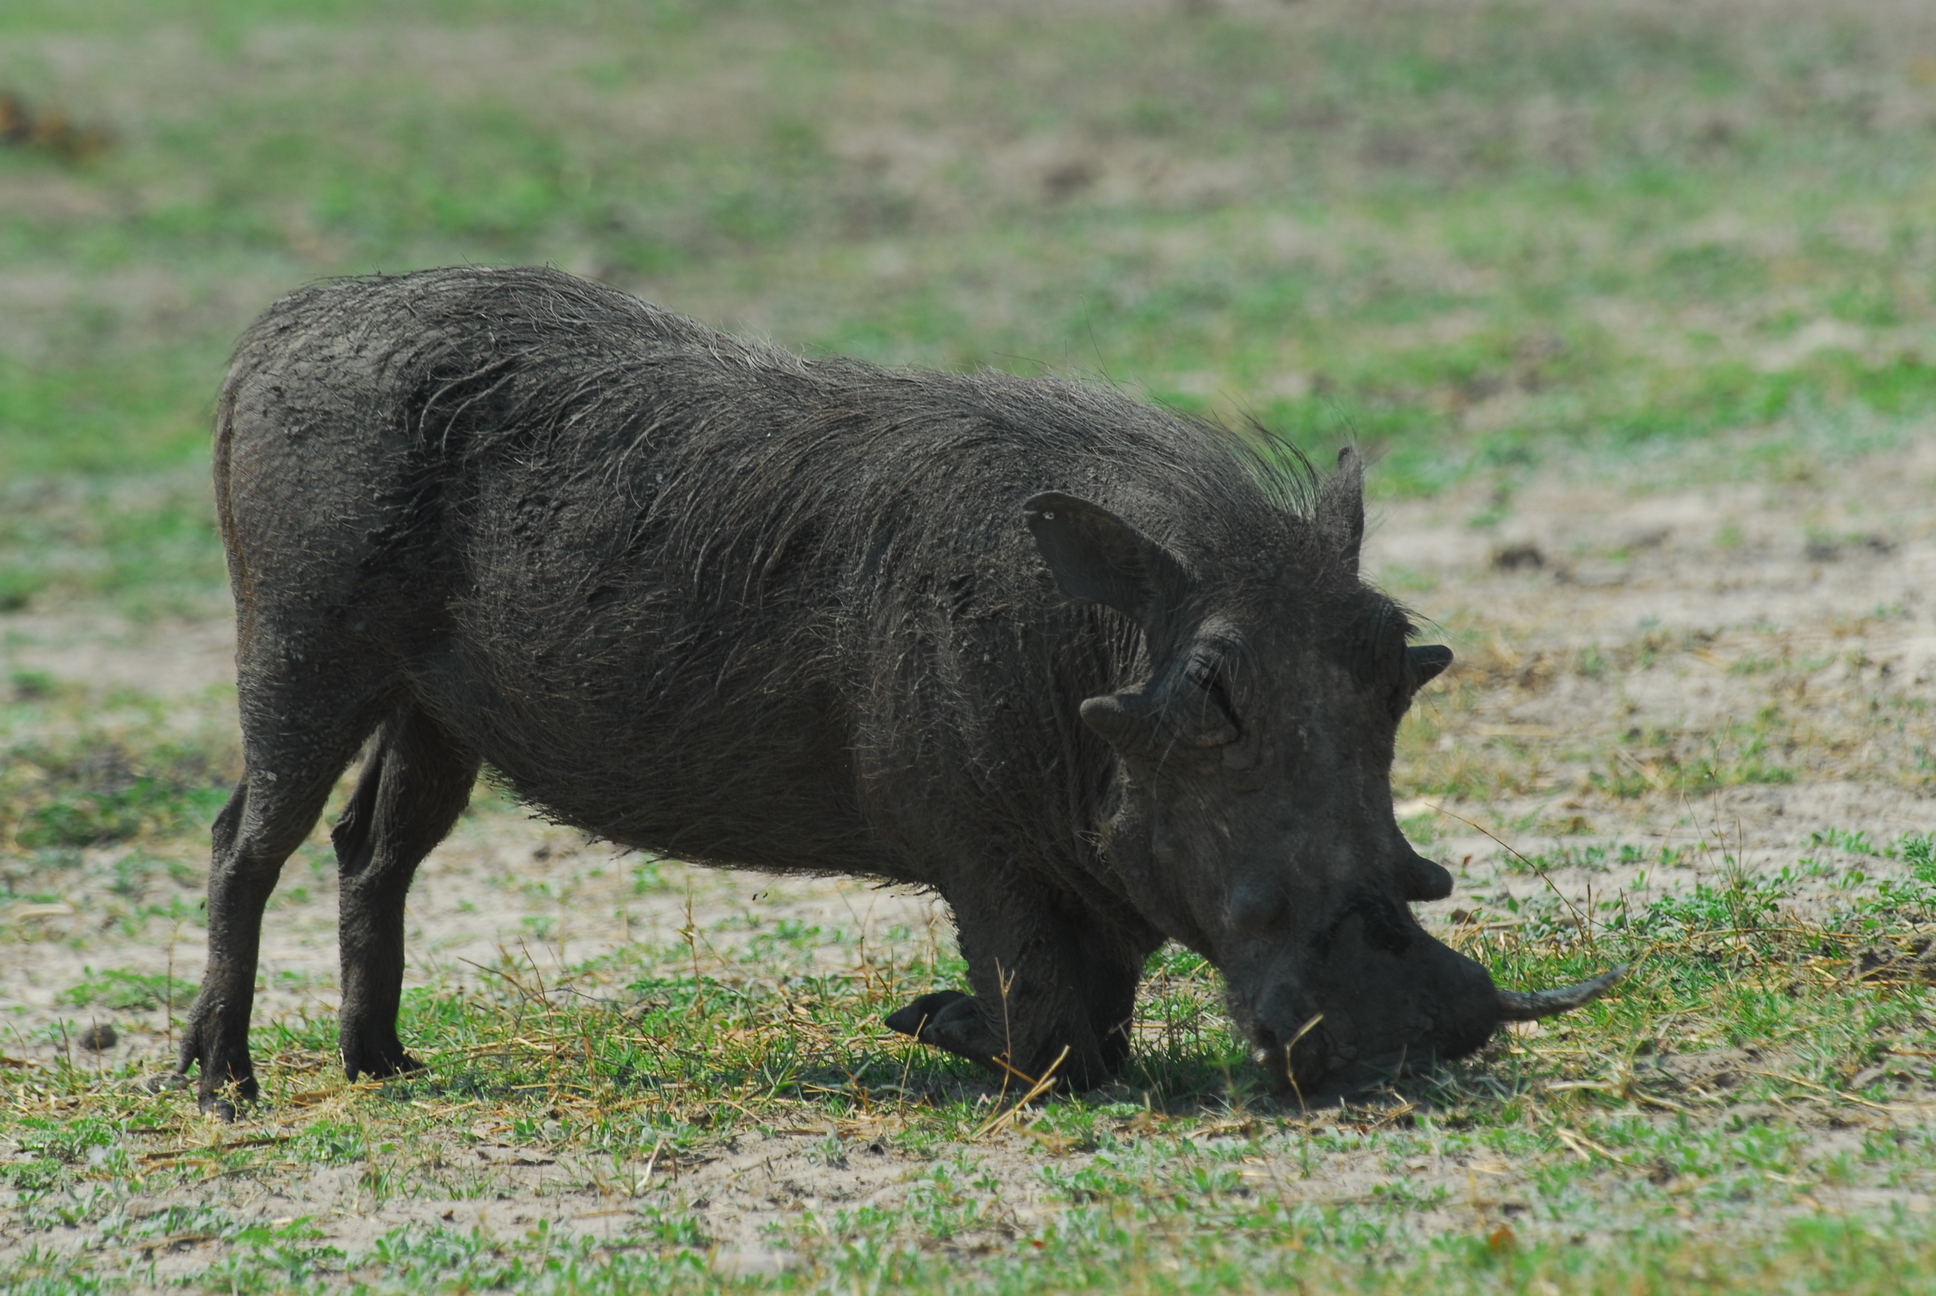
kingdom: Animalia
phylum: Chordata
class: Mammalia
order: Artiodactyla
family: Suidae
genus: Phacochoerus
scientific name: Phacochoerus africanus
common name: Common warthog
